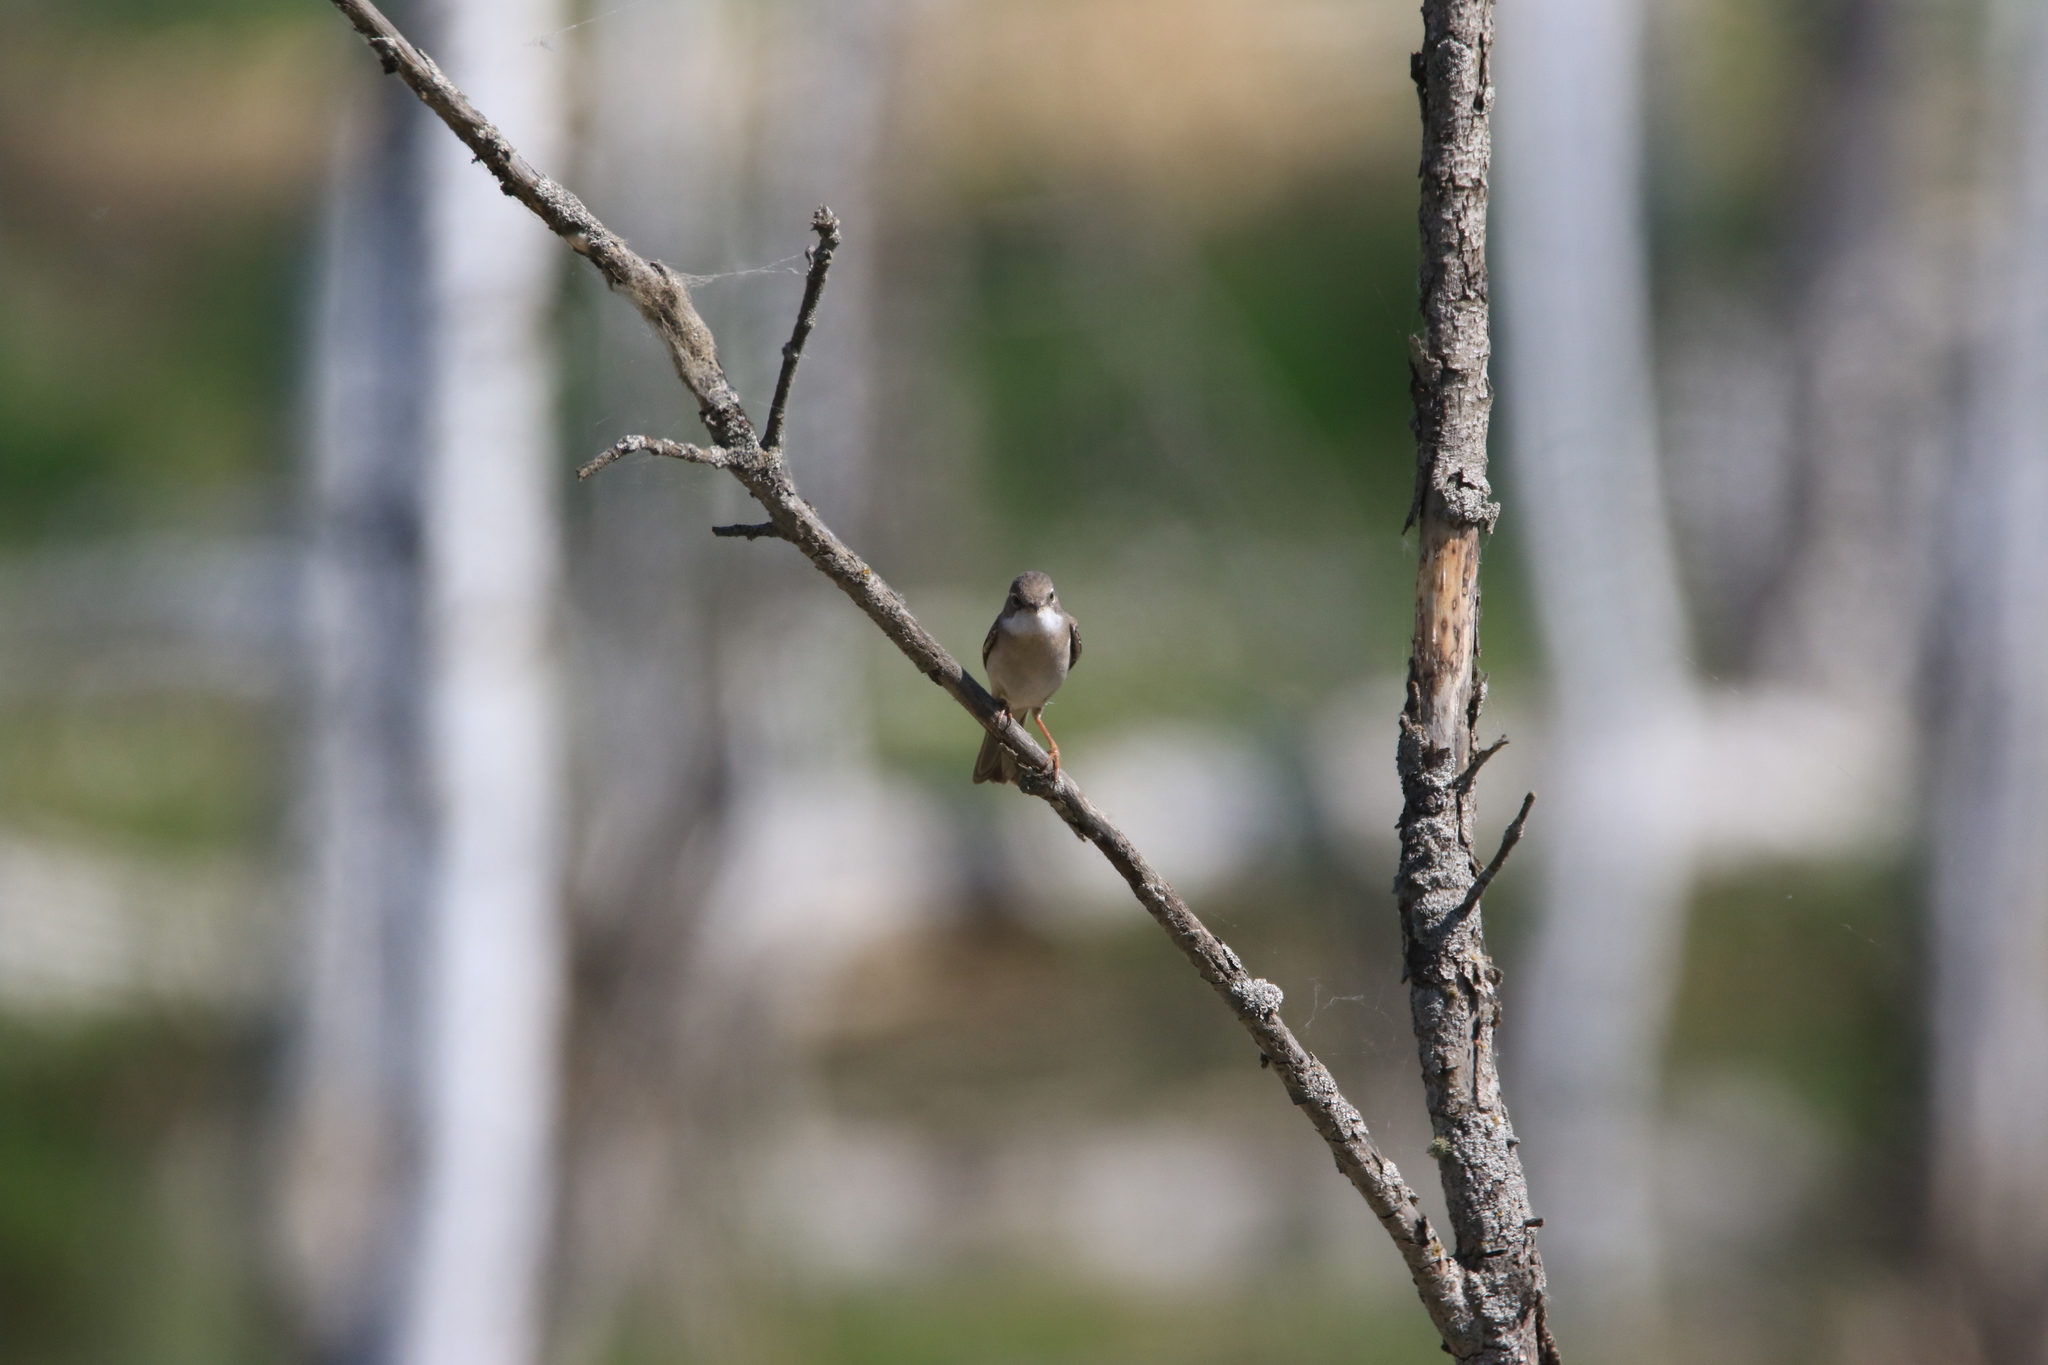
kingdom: Animalia
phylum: Chordata
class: Aves
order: Passeriformes
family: Sylviidae
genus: Sylvia
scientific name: Sylvia communis
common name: Common whitethroat
